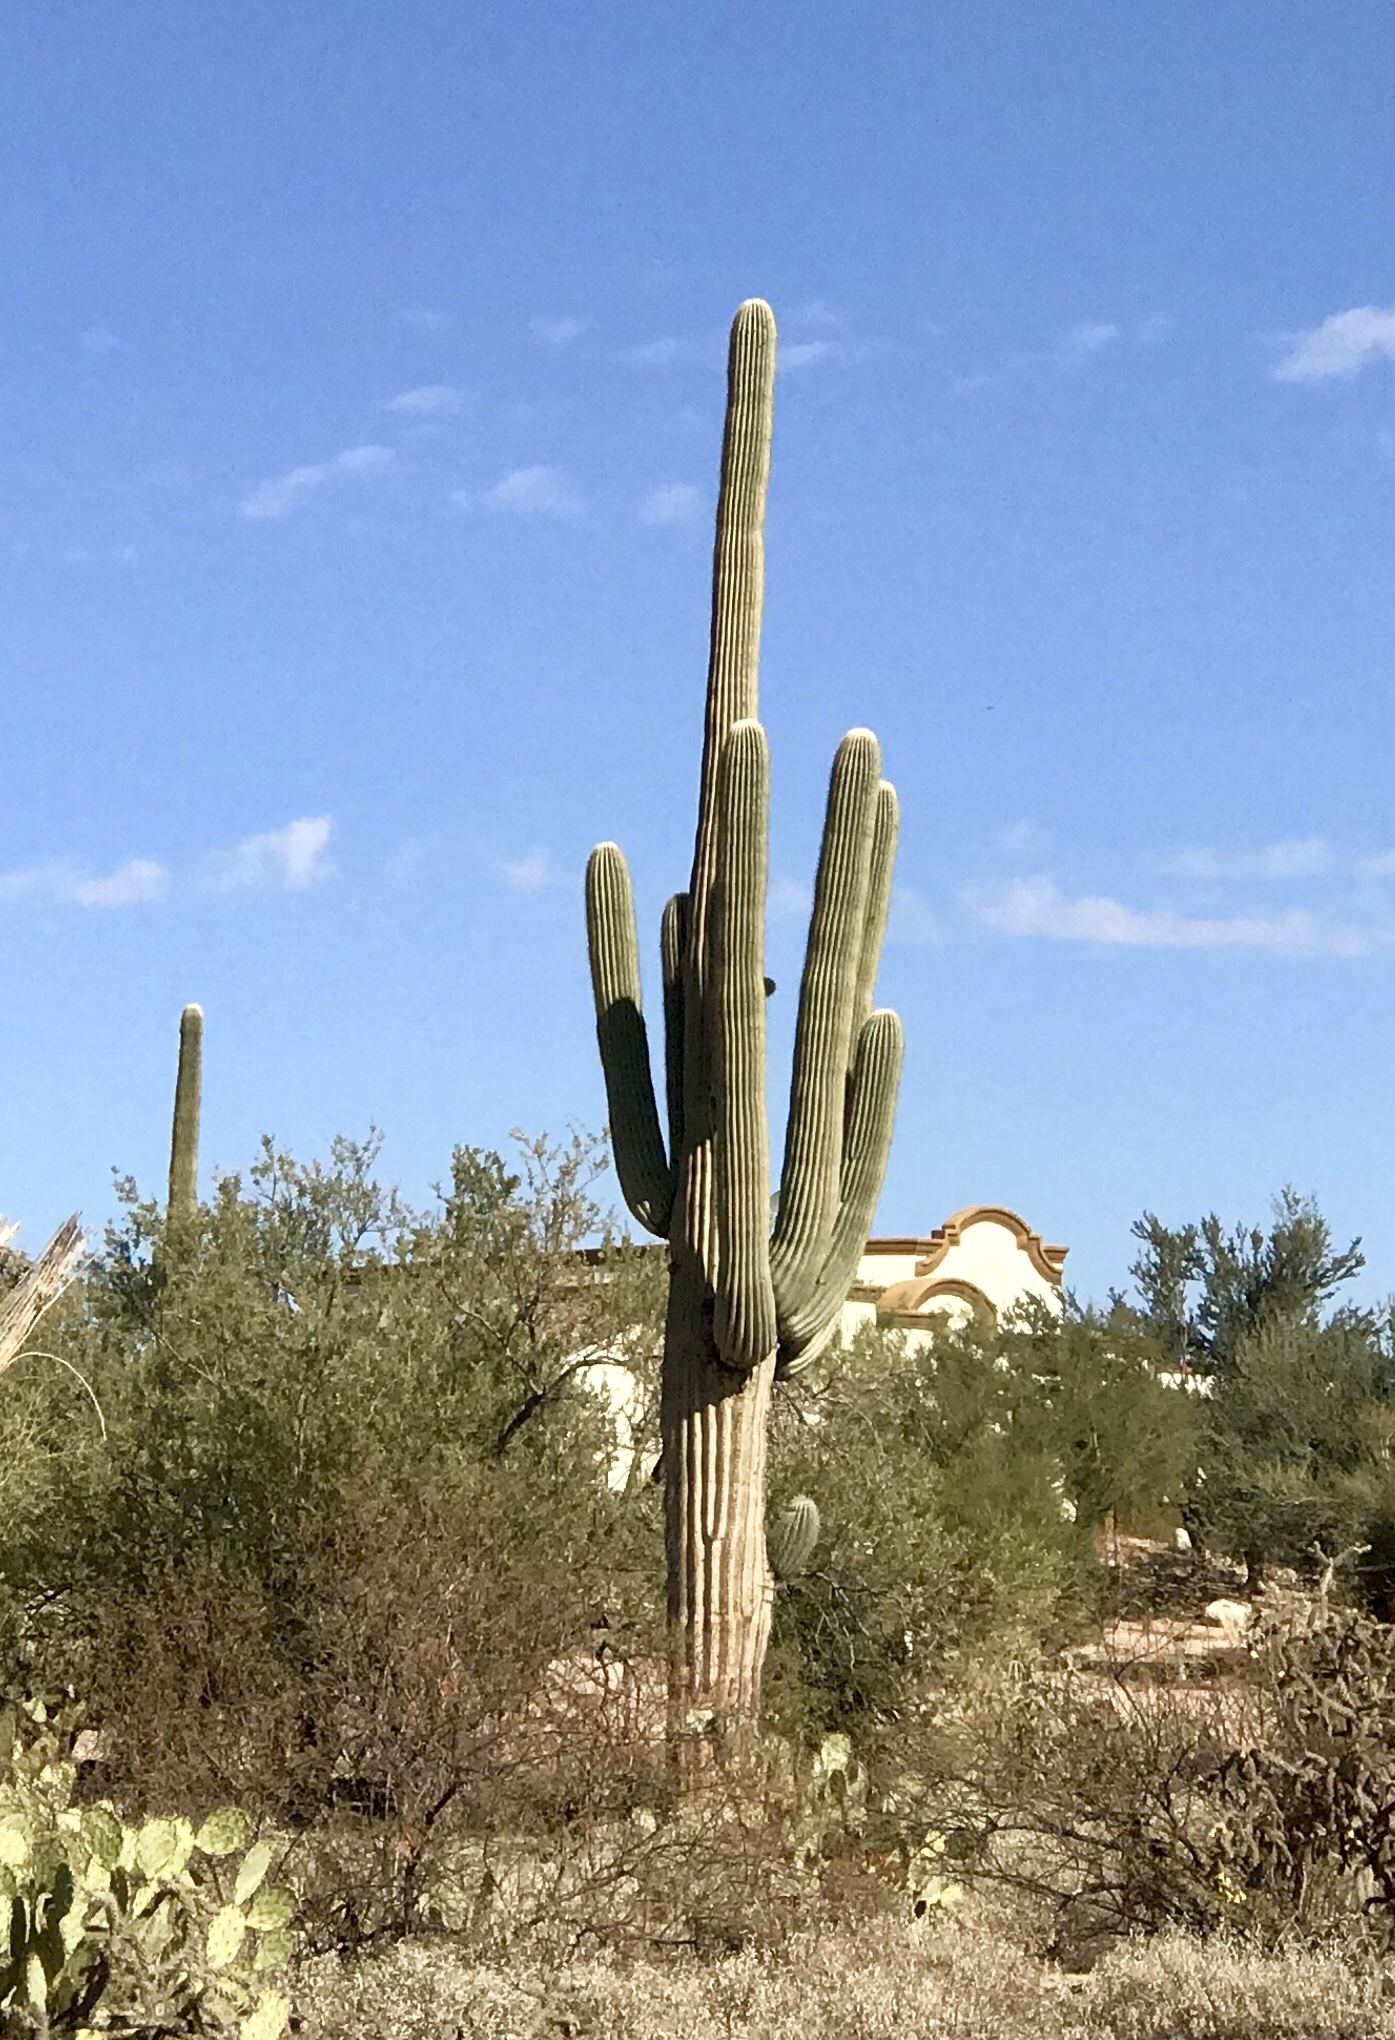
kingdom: Plantae
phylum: Tracheophyta
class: Magnoliopsida
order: Caryophyllales
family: Cactaceae
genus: Carnegiea
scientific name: Carnegiea gigantea
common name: Saguaro
